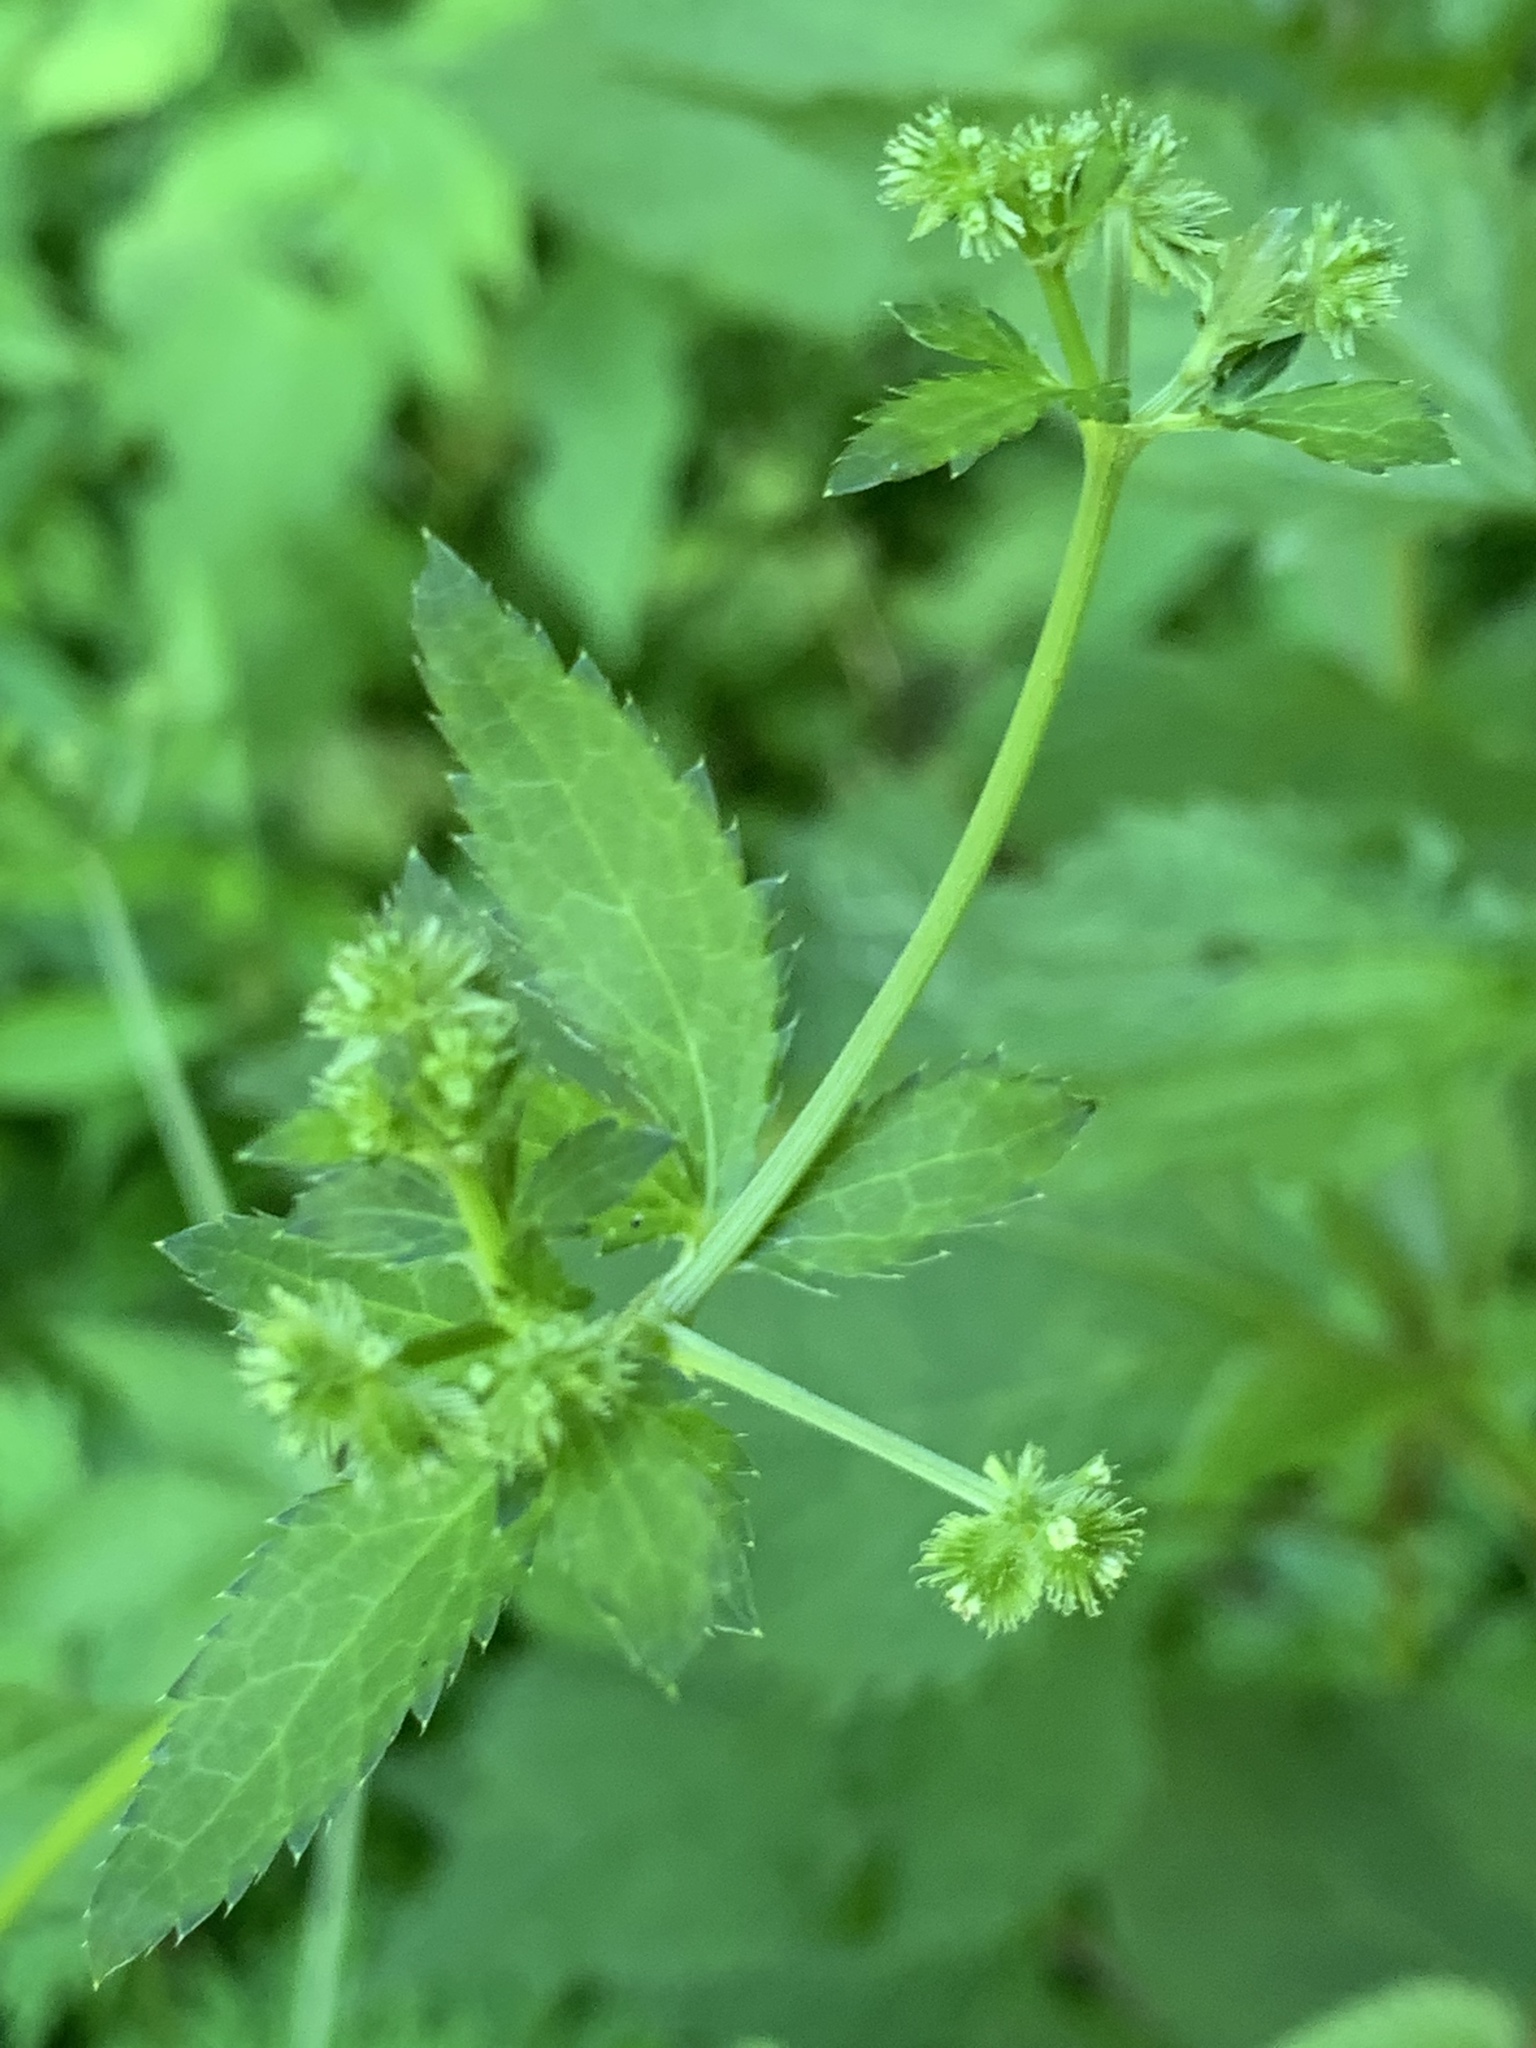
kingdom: Plantae
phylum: Tracheophyta
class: Magnoliopsida
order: Apiales
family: Apiaceae
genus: Sanicula
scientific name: Sanicula canadensis
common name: Canada sanicle
